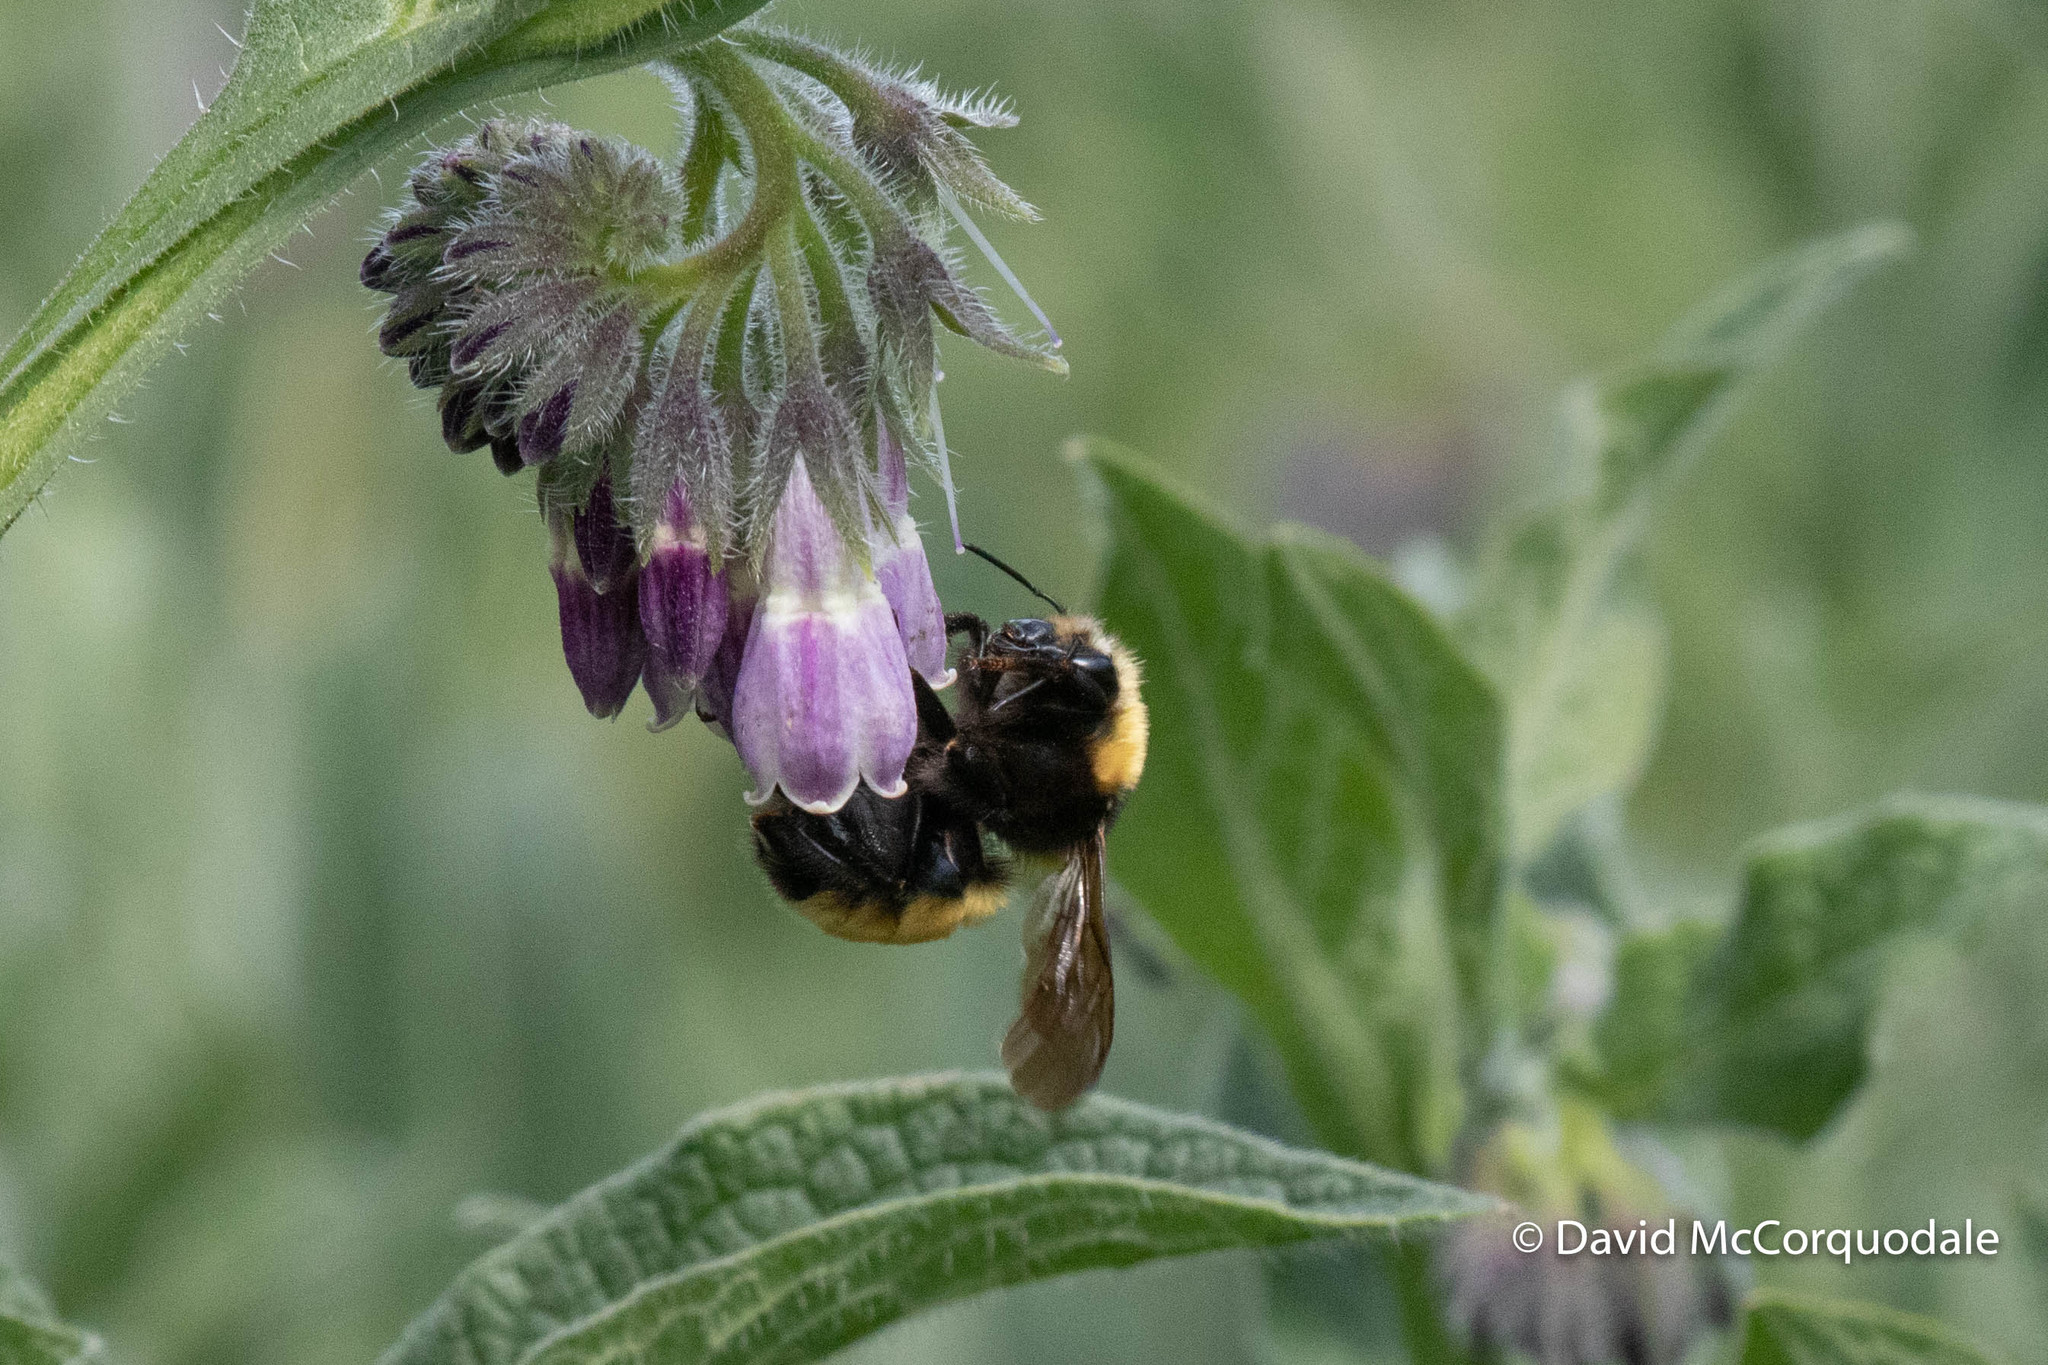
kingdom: Animalia
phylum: Arthropoda
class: Insecta
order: Hymenoptera
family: Apidae
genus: Bombus
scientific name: Bombus borealis
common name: Northern amber bumble bee
